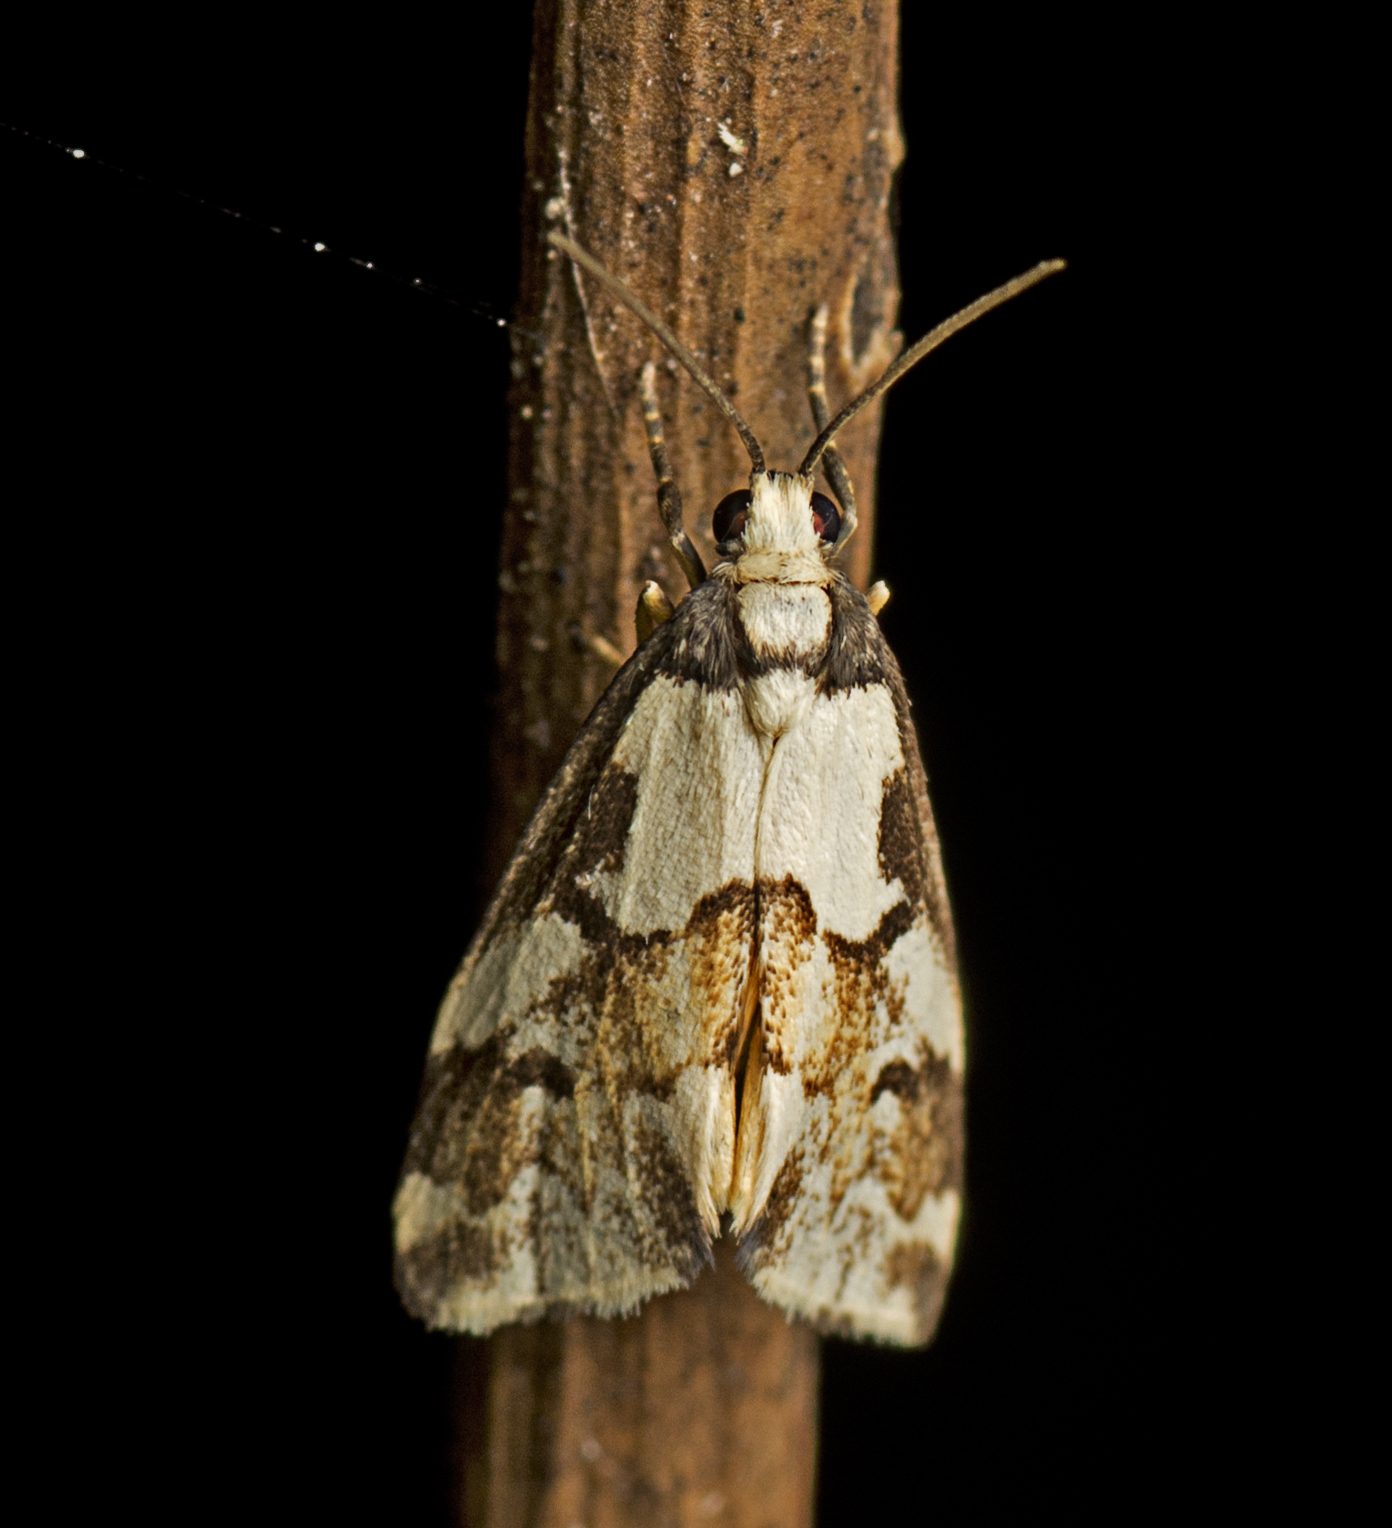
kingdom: Animalia
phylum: Arthropoda
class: Insecta
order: Lepidoptera
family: Erebidae
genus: Philenora
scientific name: Philenora chionastis
